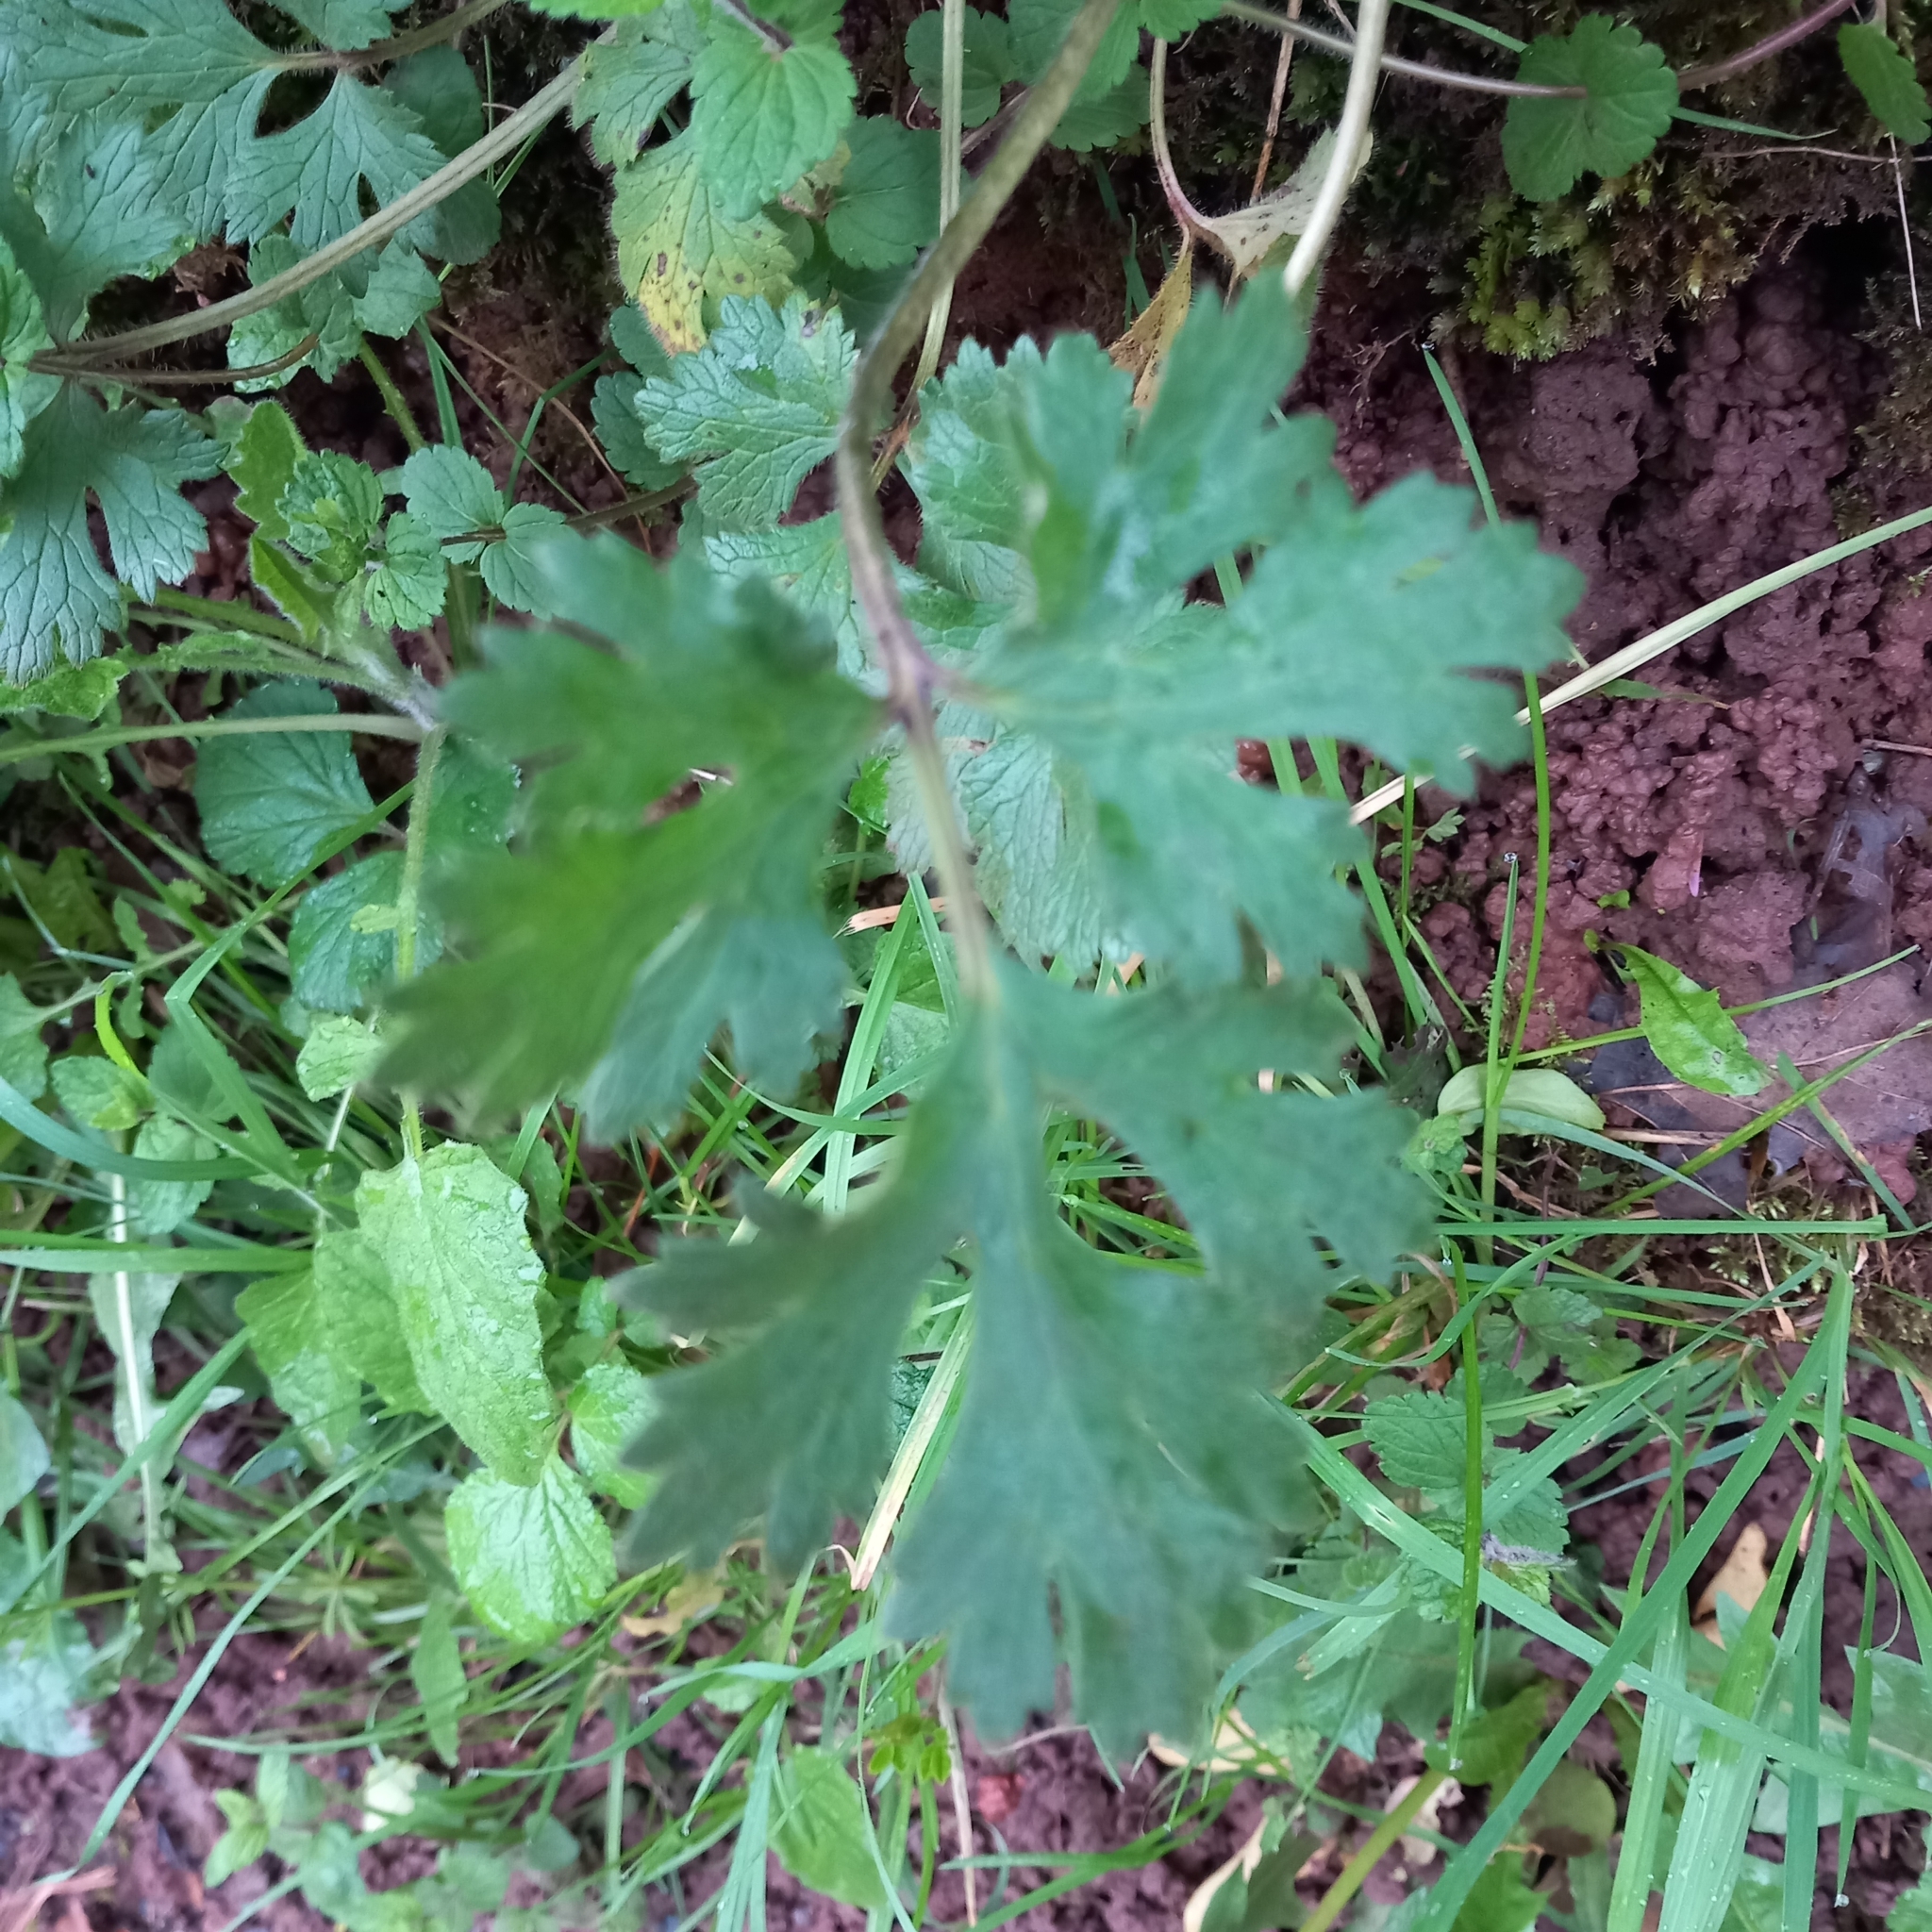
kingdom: Plantae
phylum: Tracheophyta
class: Magnoliopsida
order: Ranunculales
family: Papaveraceae
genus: Chelidonium
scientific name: Chelidonium majus
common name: Greater celandine
